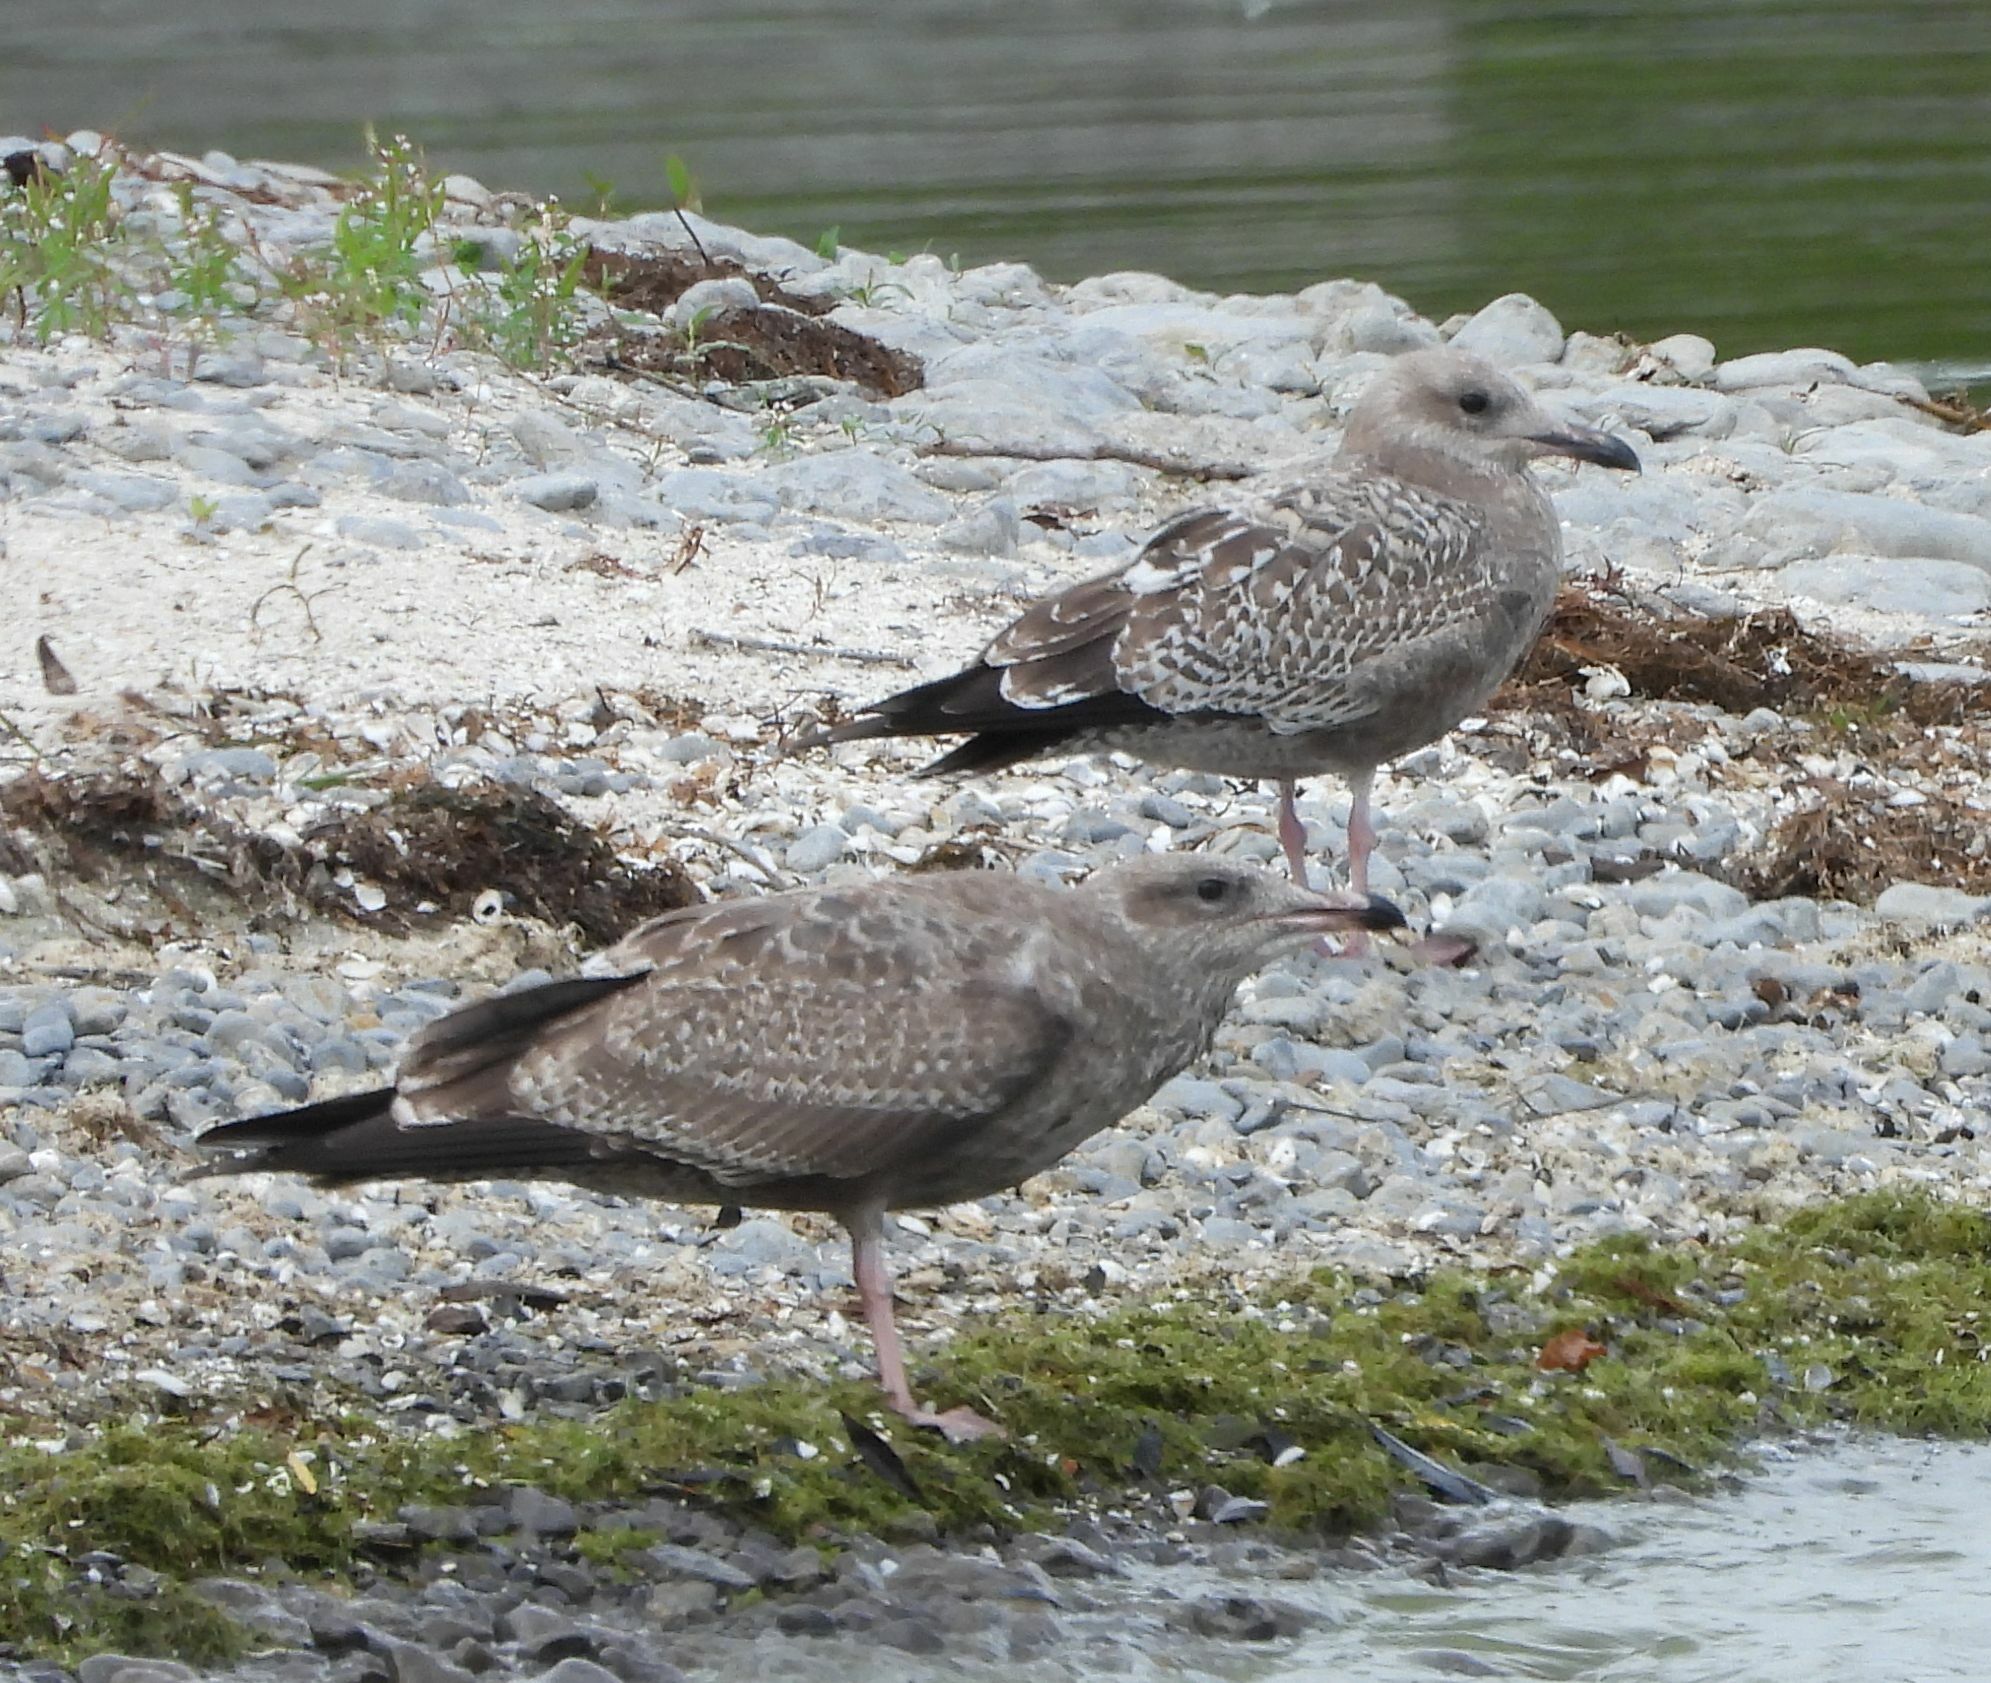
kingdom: Animalia
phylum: Chordata
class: Aves
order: Charadriiformes
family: Laridae
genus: Larus
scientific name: Larus argentatus
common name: Herring gull
